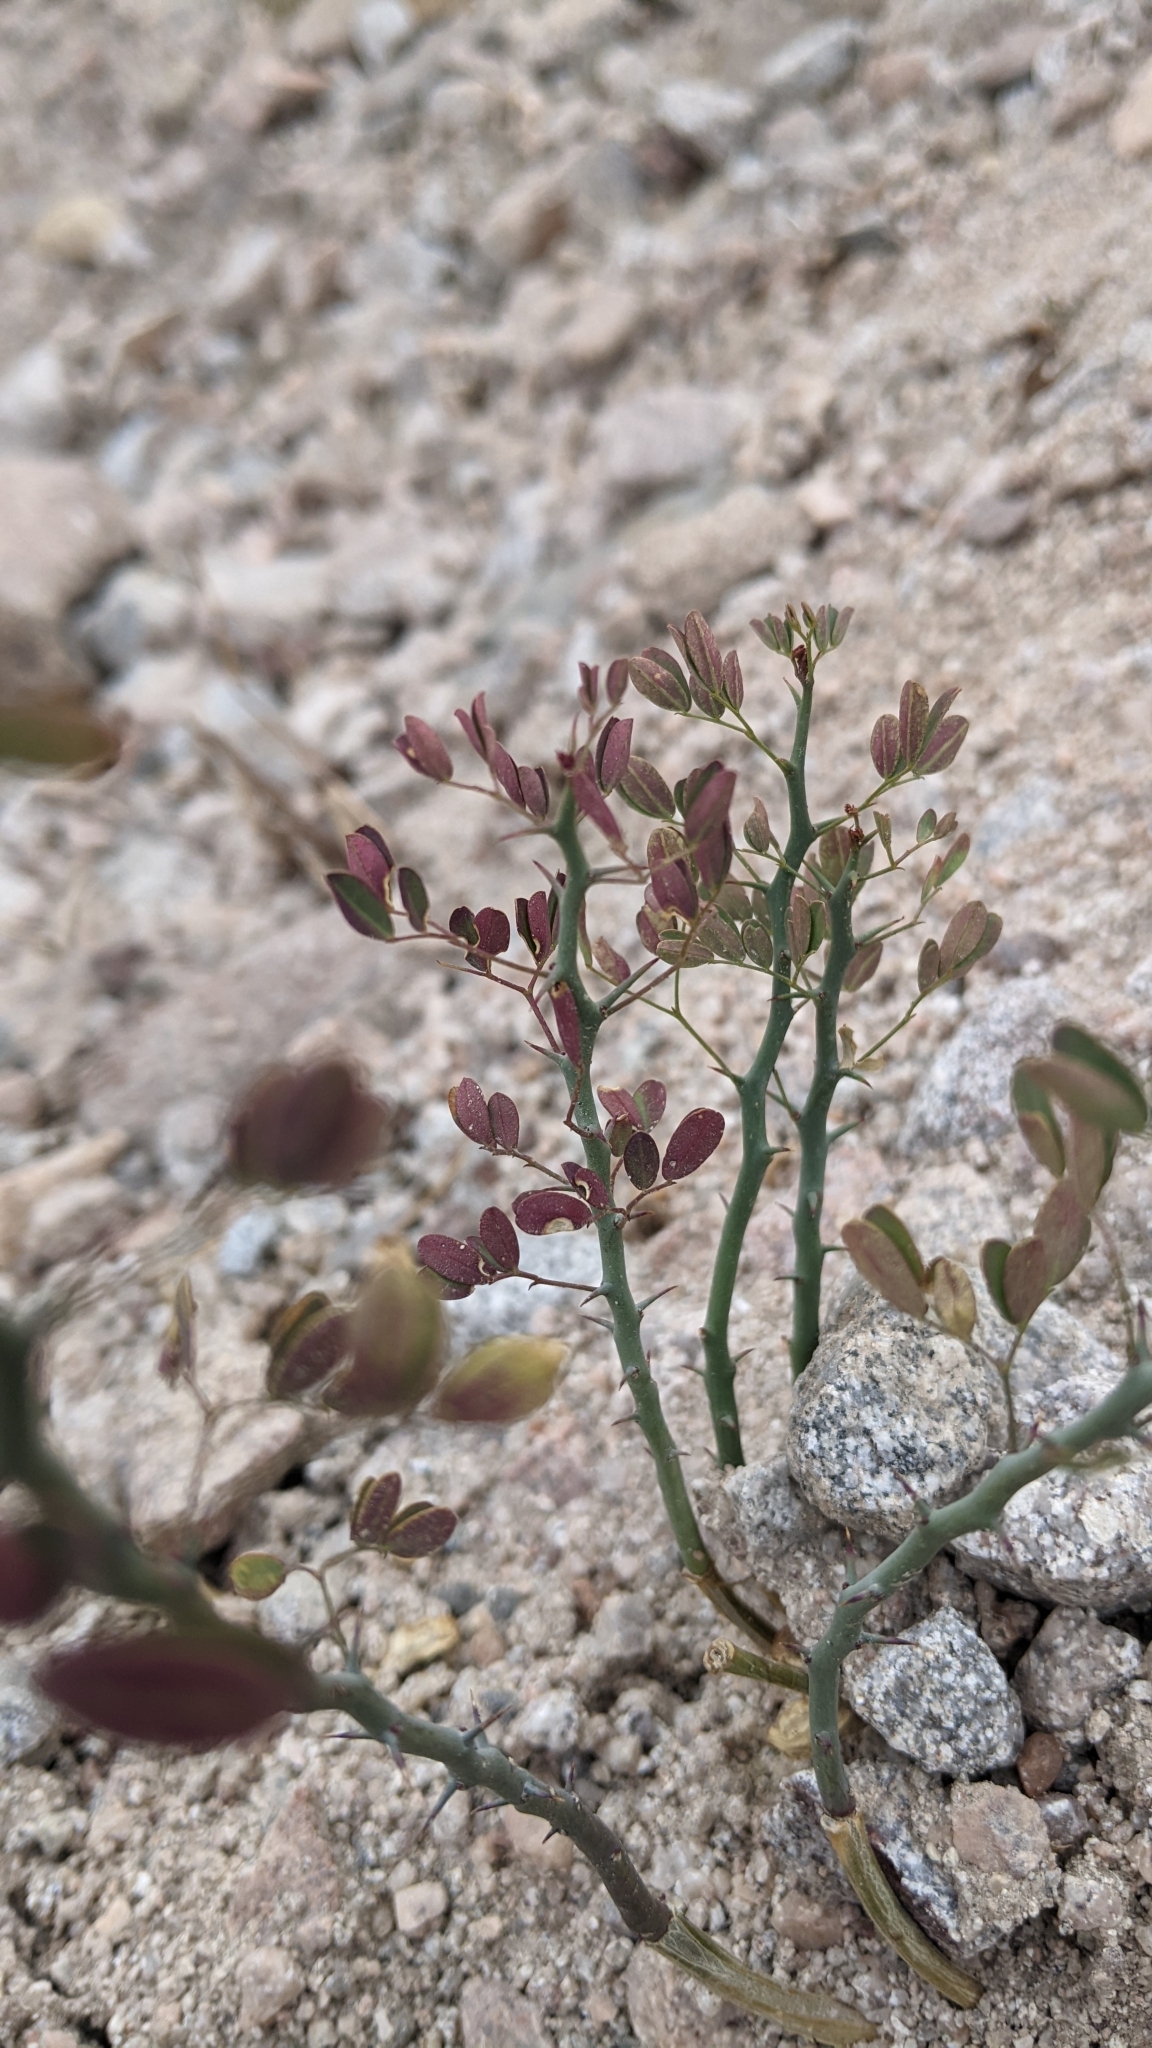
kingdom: Plantae
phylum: Tracheophyta
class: Magnoliopsida
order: Fabales
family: Fabaceae
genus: Parkinsonia
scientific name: Parkinsonia florida
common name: Blue paloverde
